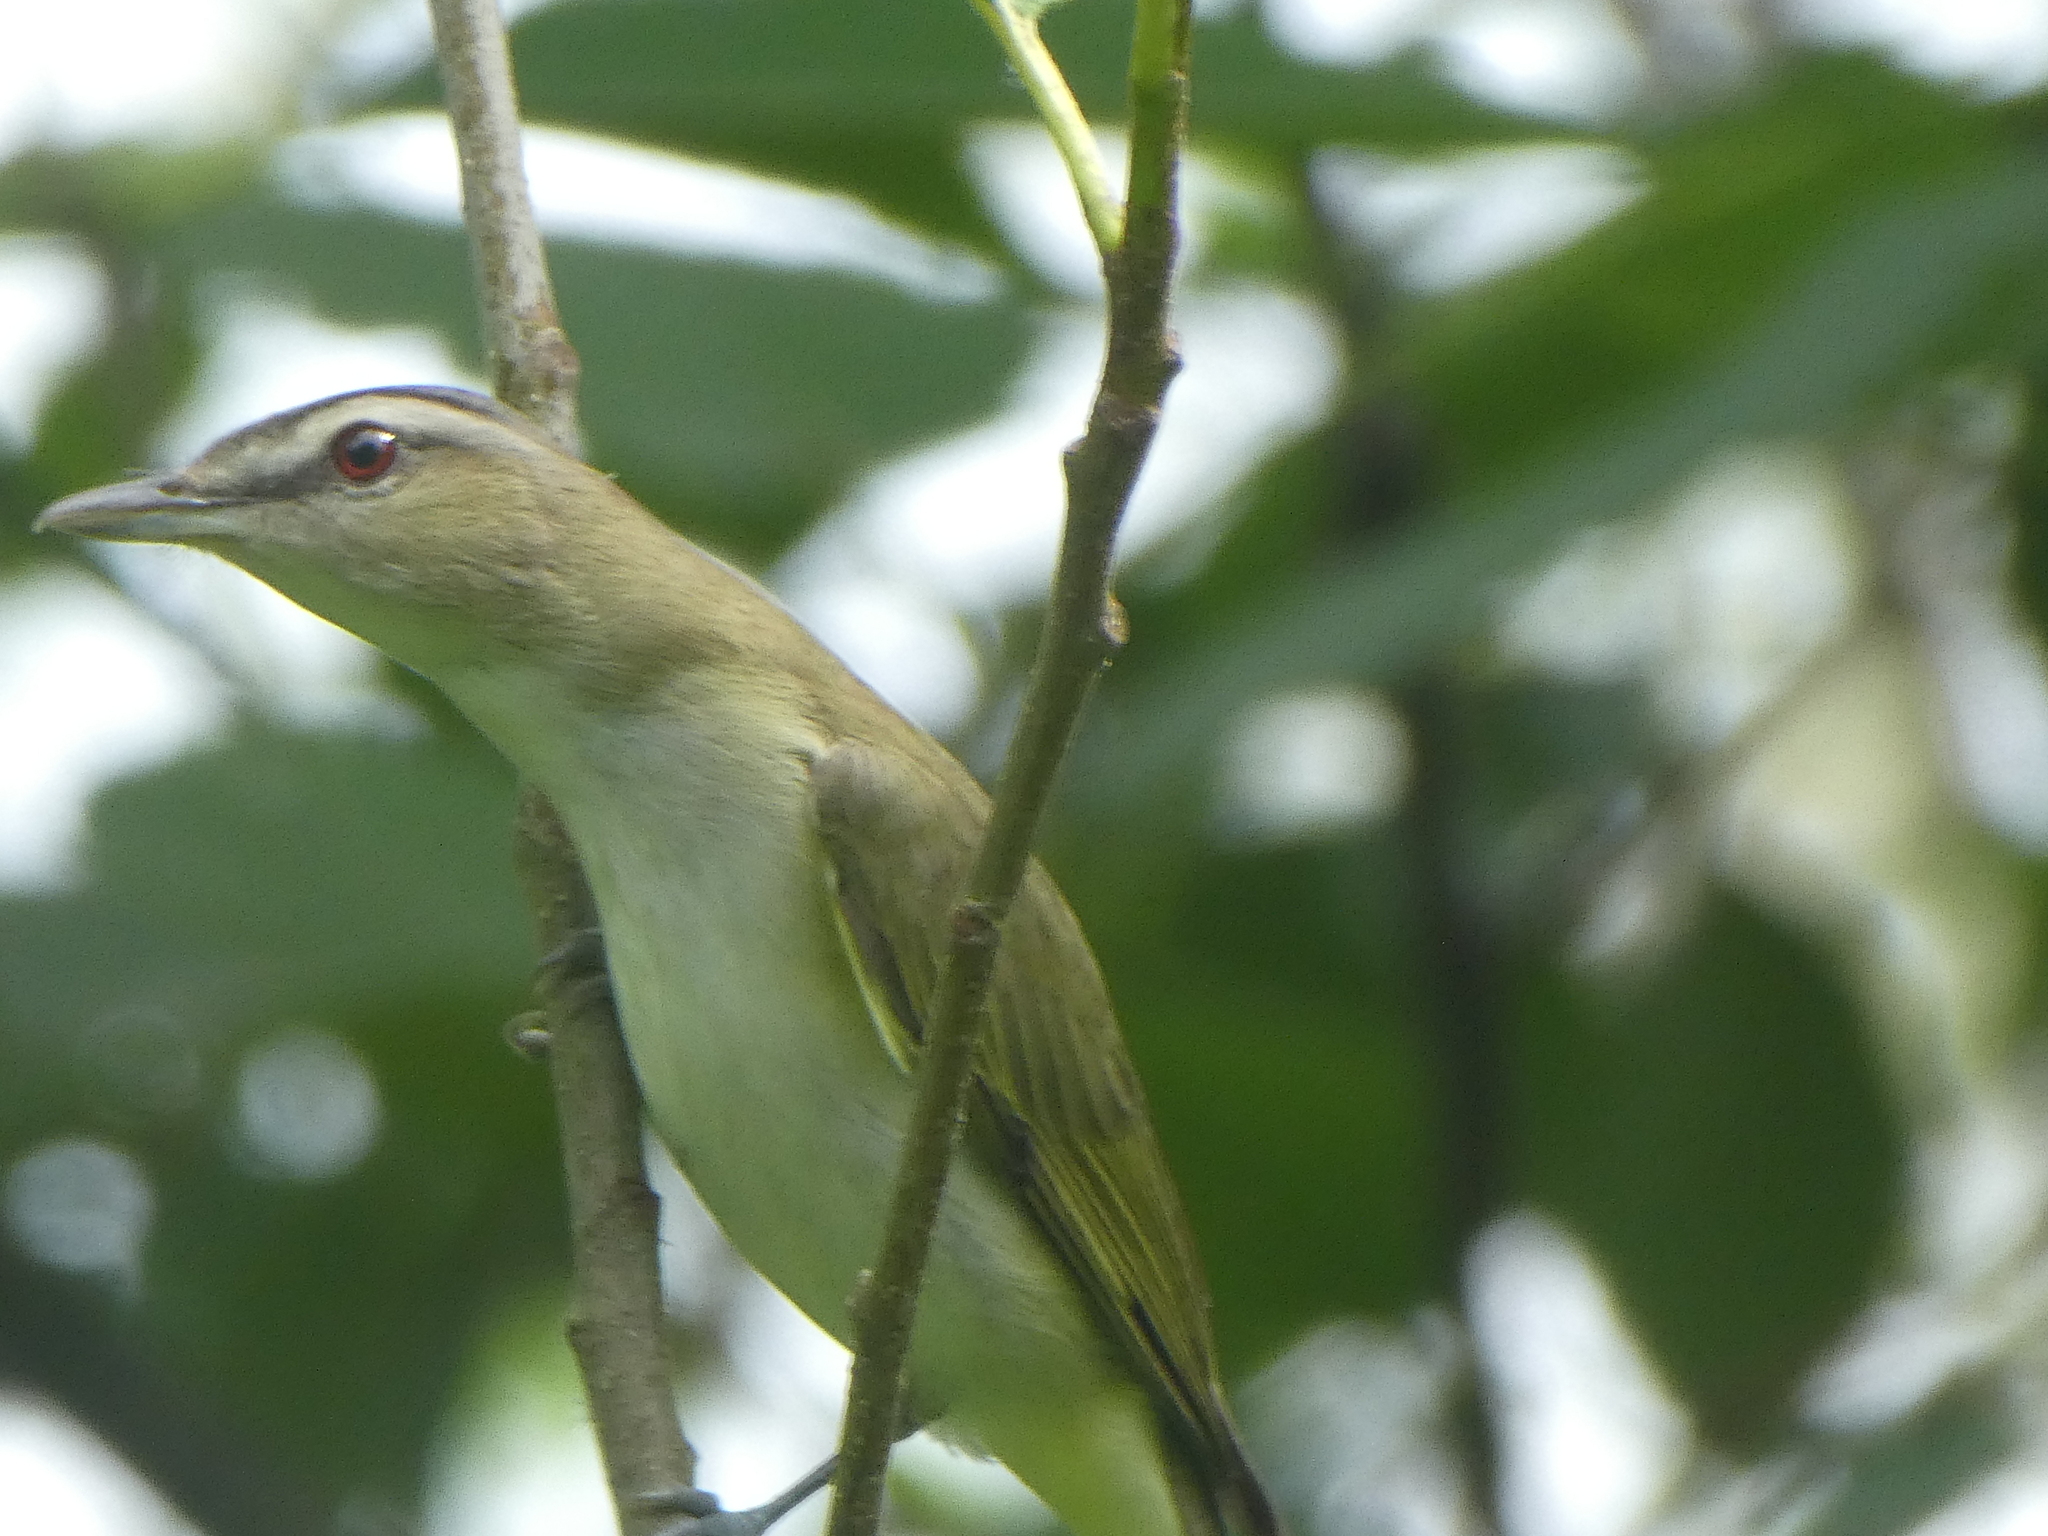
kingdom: Animalia
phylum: Chordata
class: Aves
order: Passeriformes
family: Vireonidae
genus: Vireo
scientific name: Vireo olivaceus
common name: Red-eyed vireo
